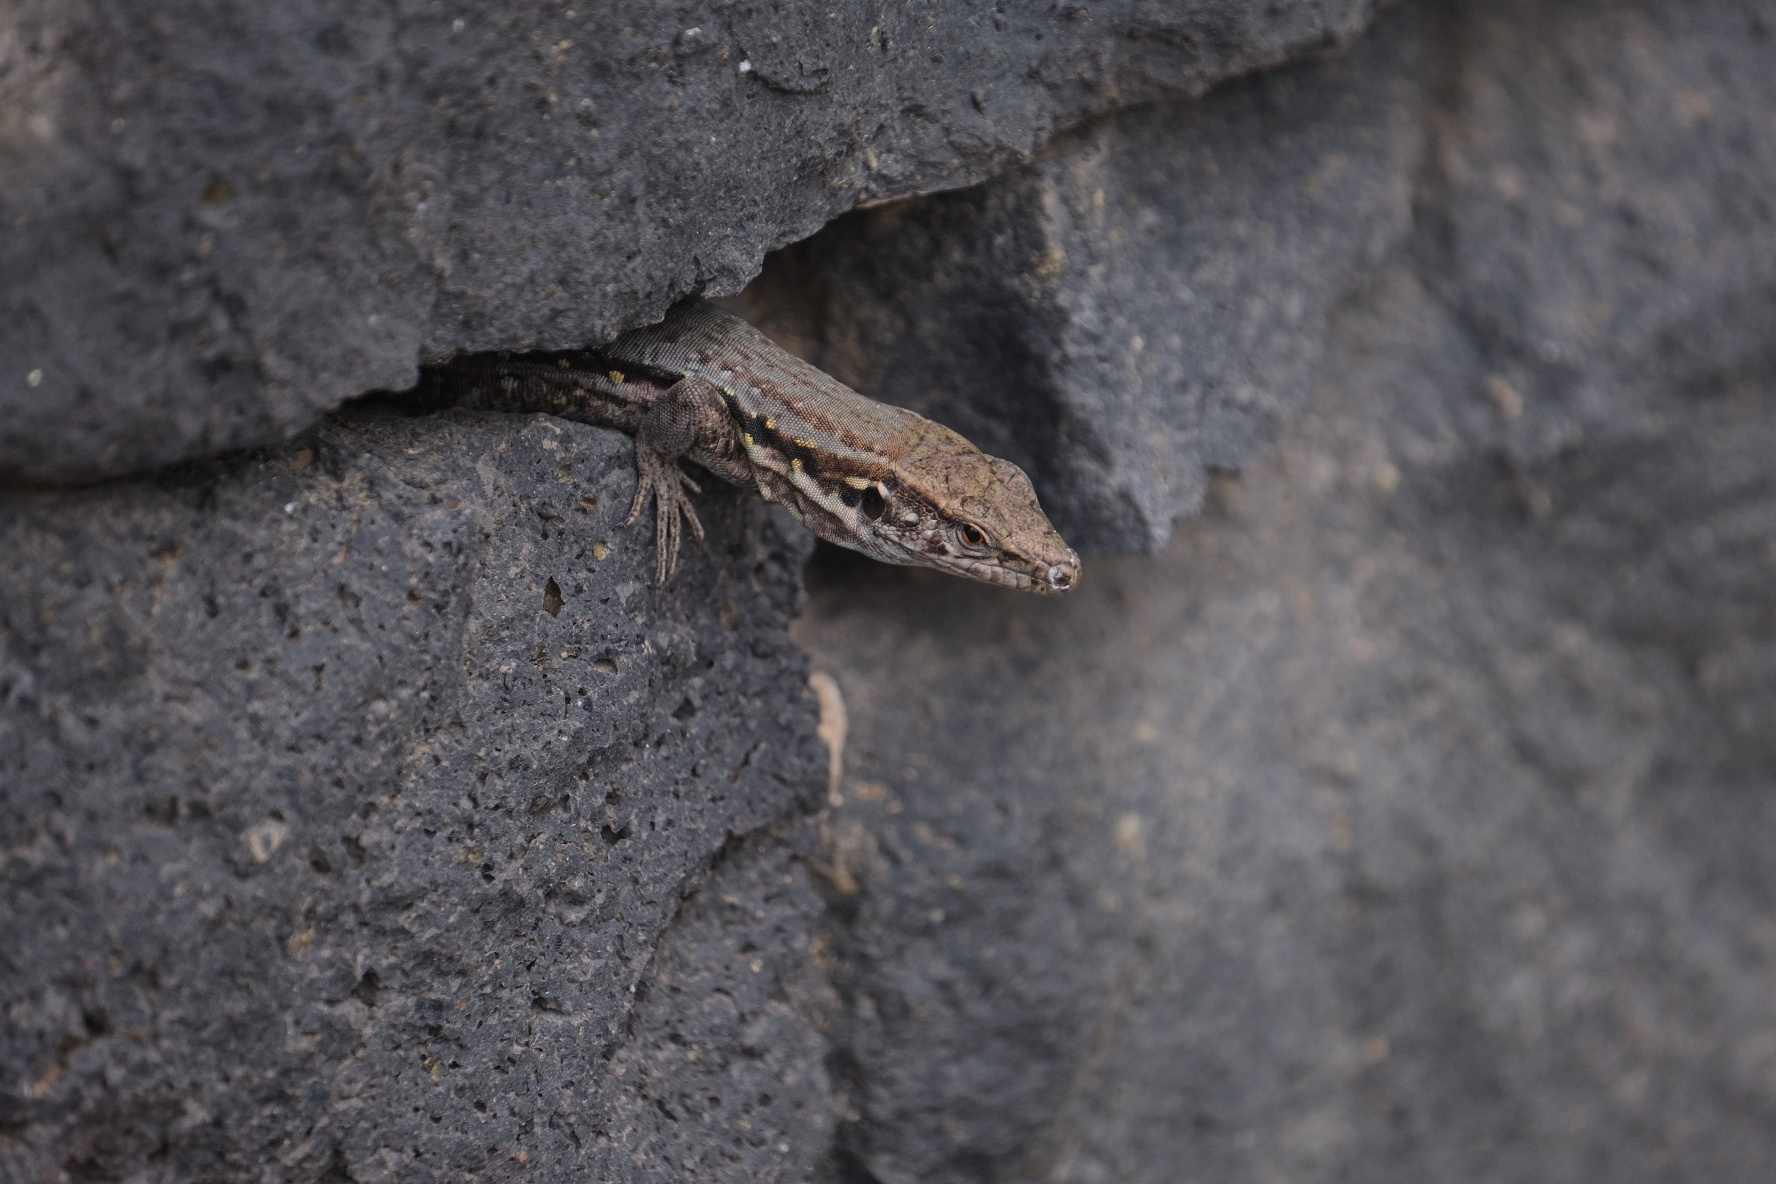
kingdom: Animalia
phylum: Chordata
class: Squamata
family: Lacertidae
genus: Gallotia
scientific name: Gallotia galloti
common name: Gallot's lizard
